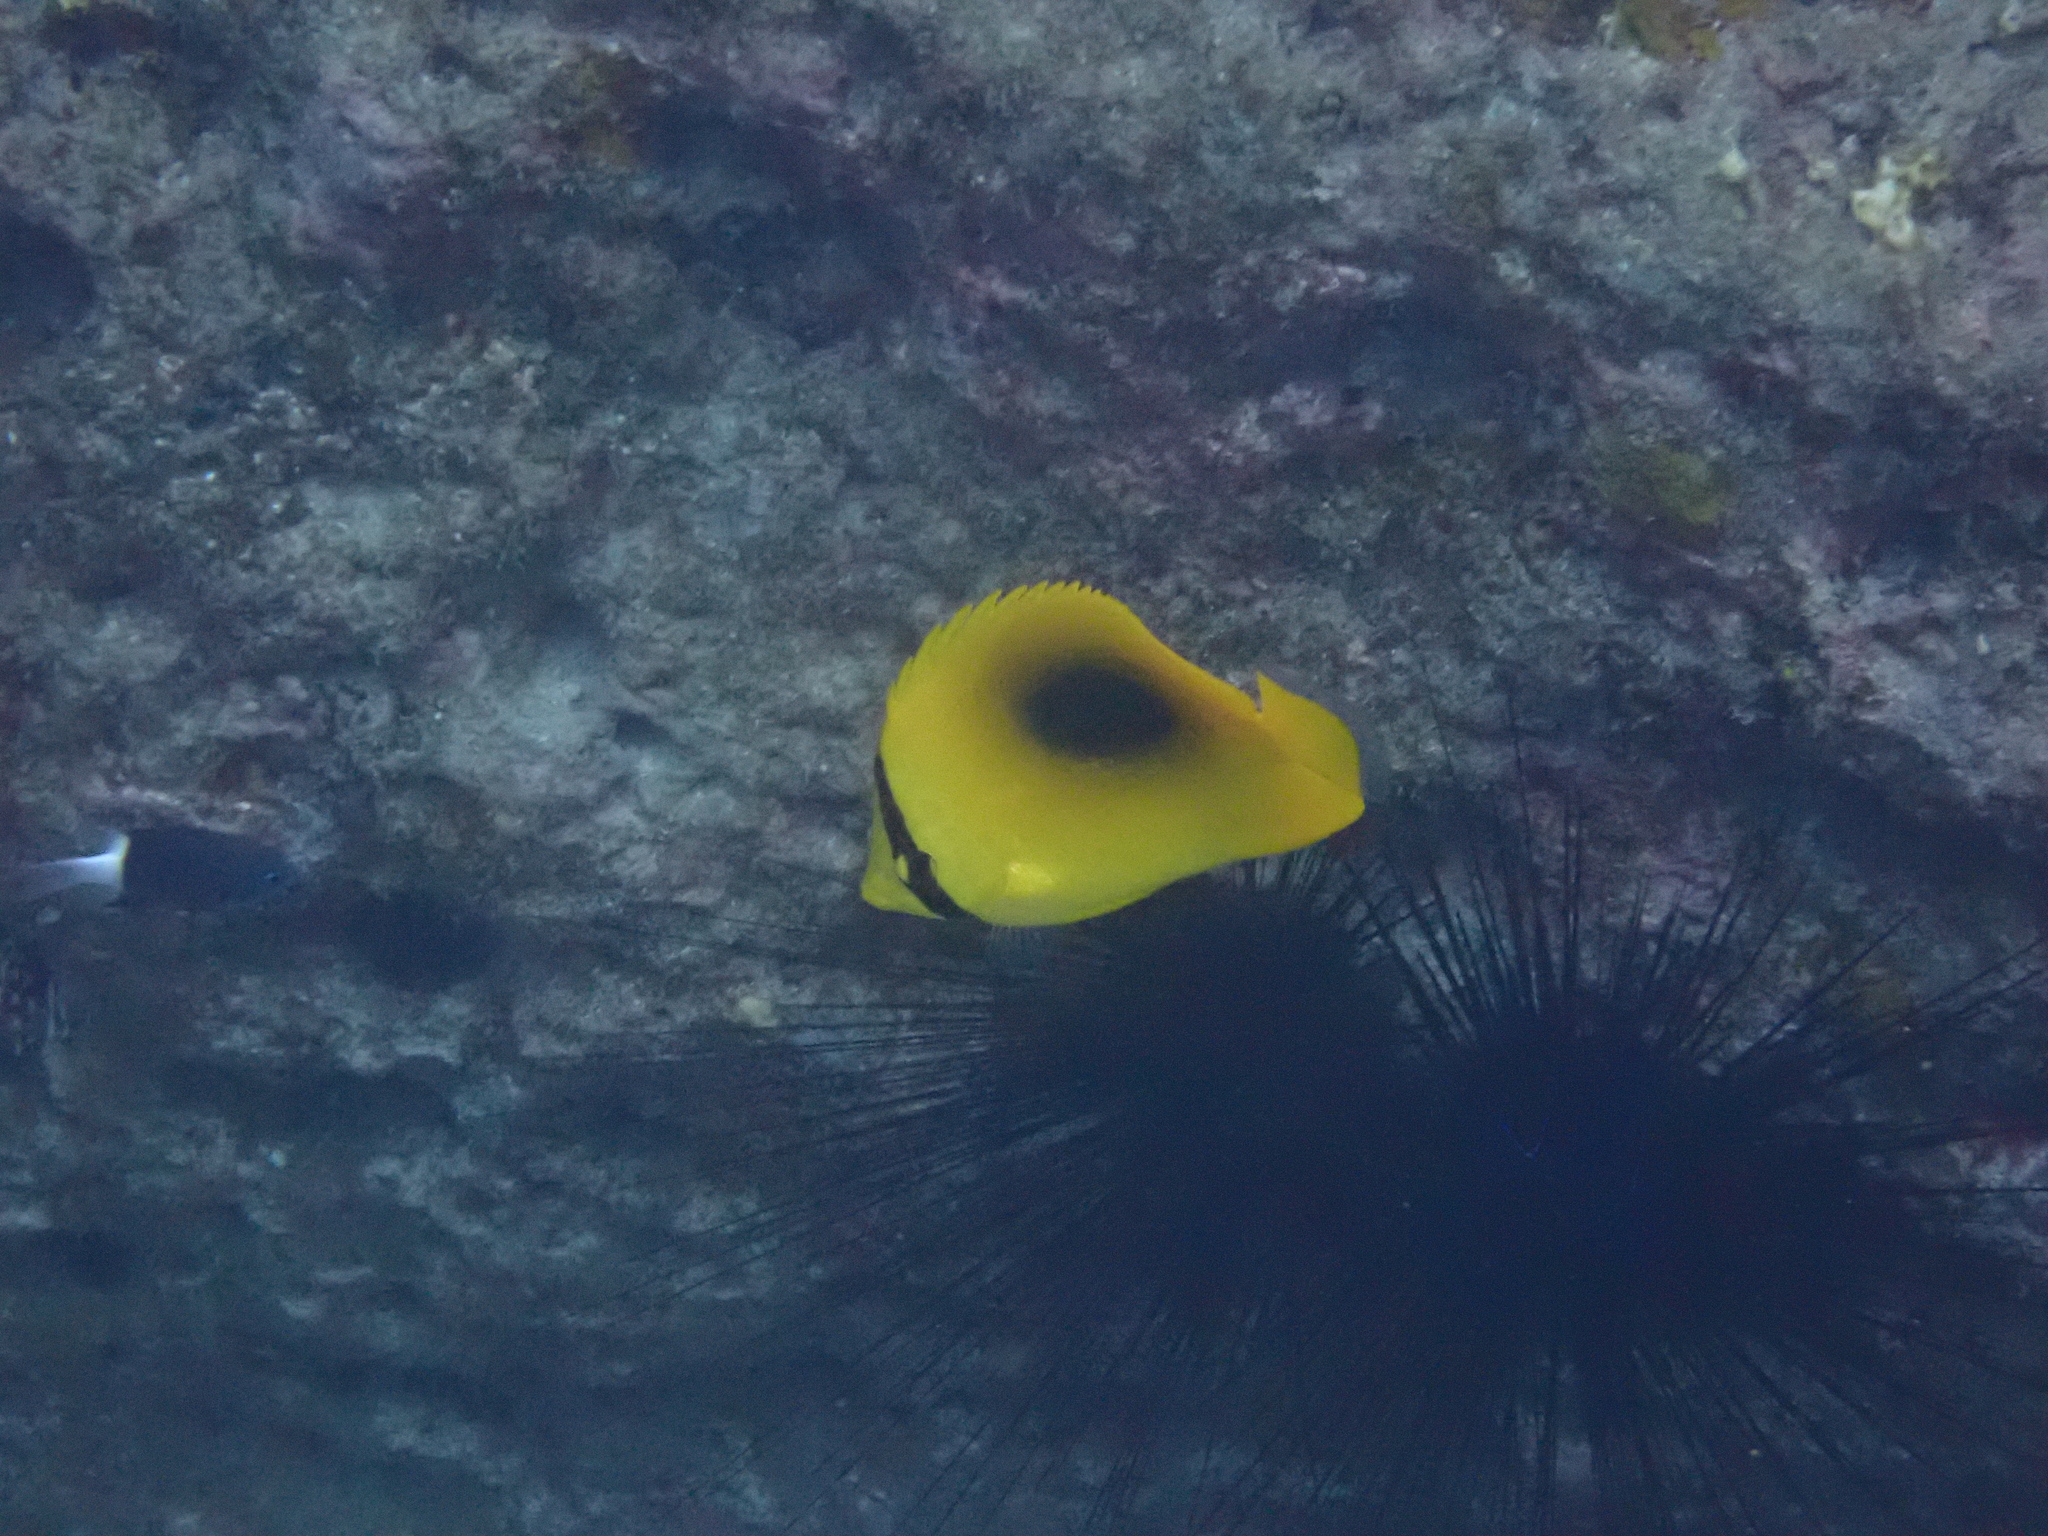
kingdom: Animalia
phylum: Chordata
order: Perciformes
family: Chaetodontidae
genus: Chaetodon
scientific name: Chaetodon speculum
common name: Mirror butterflyfish
